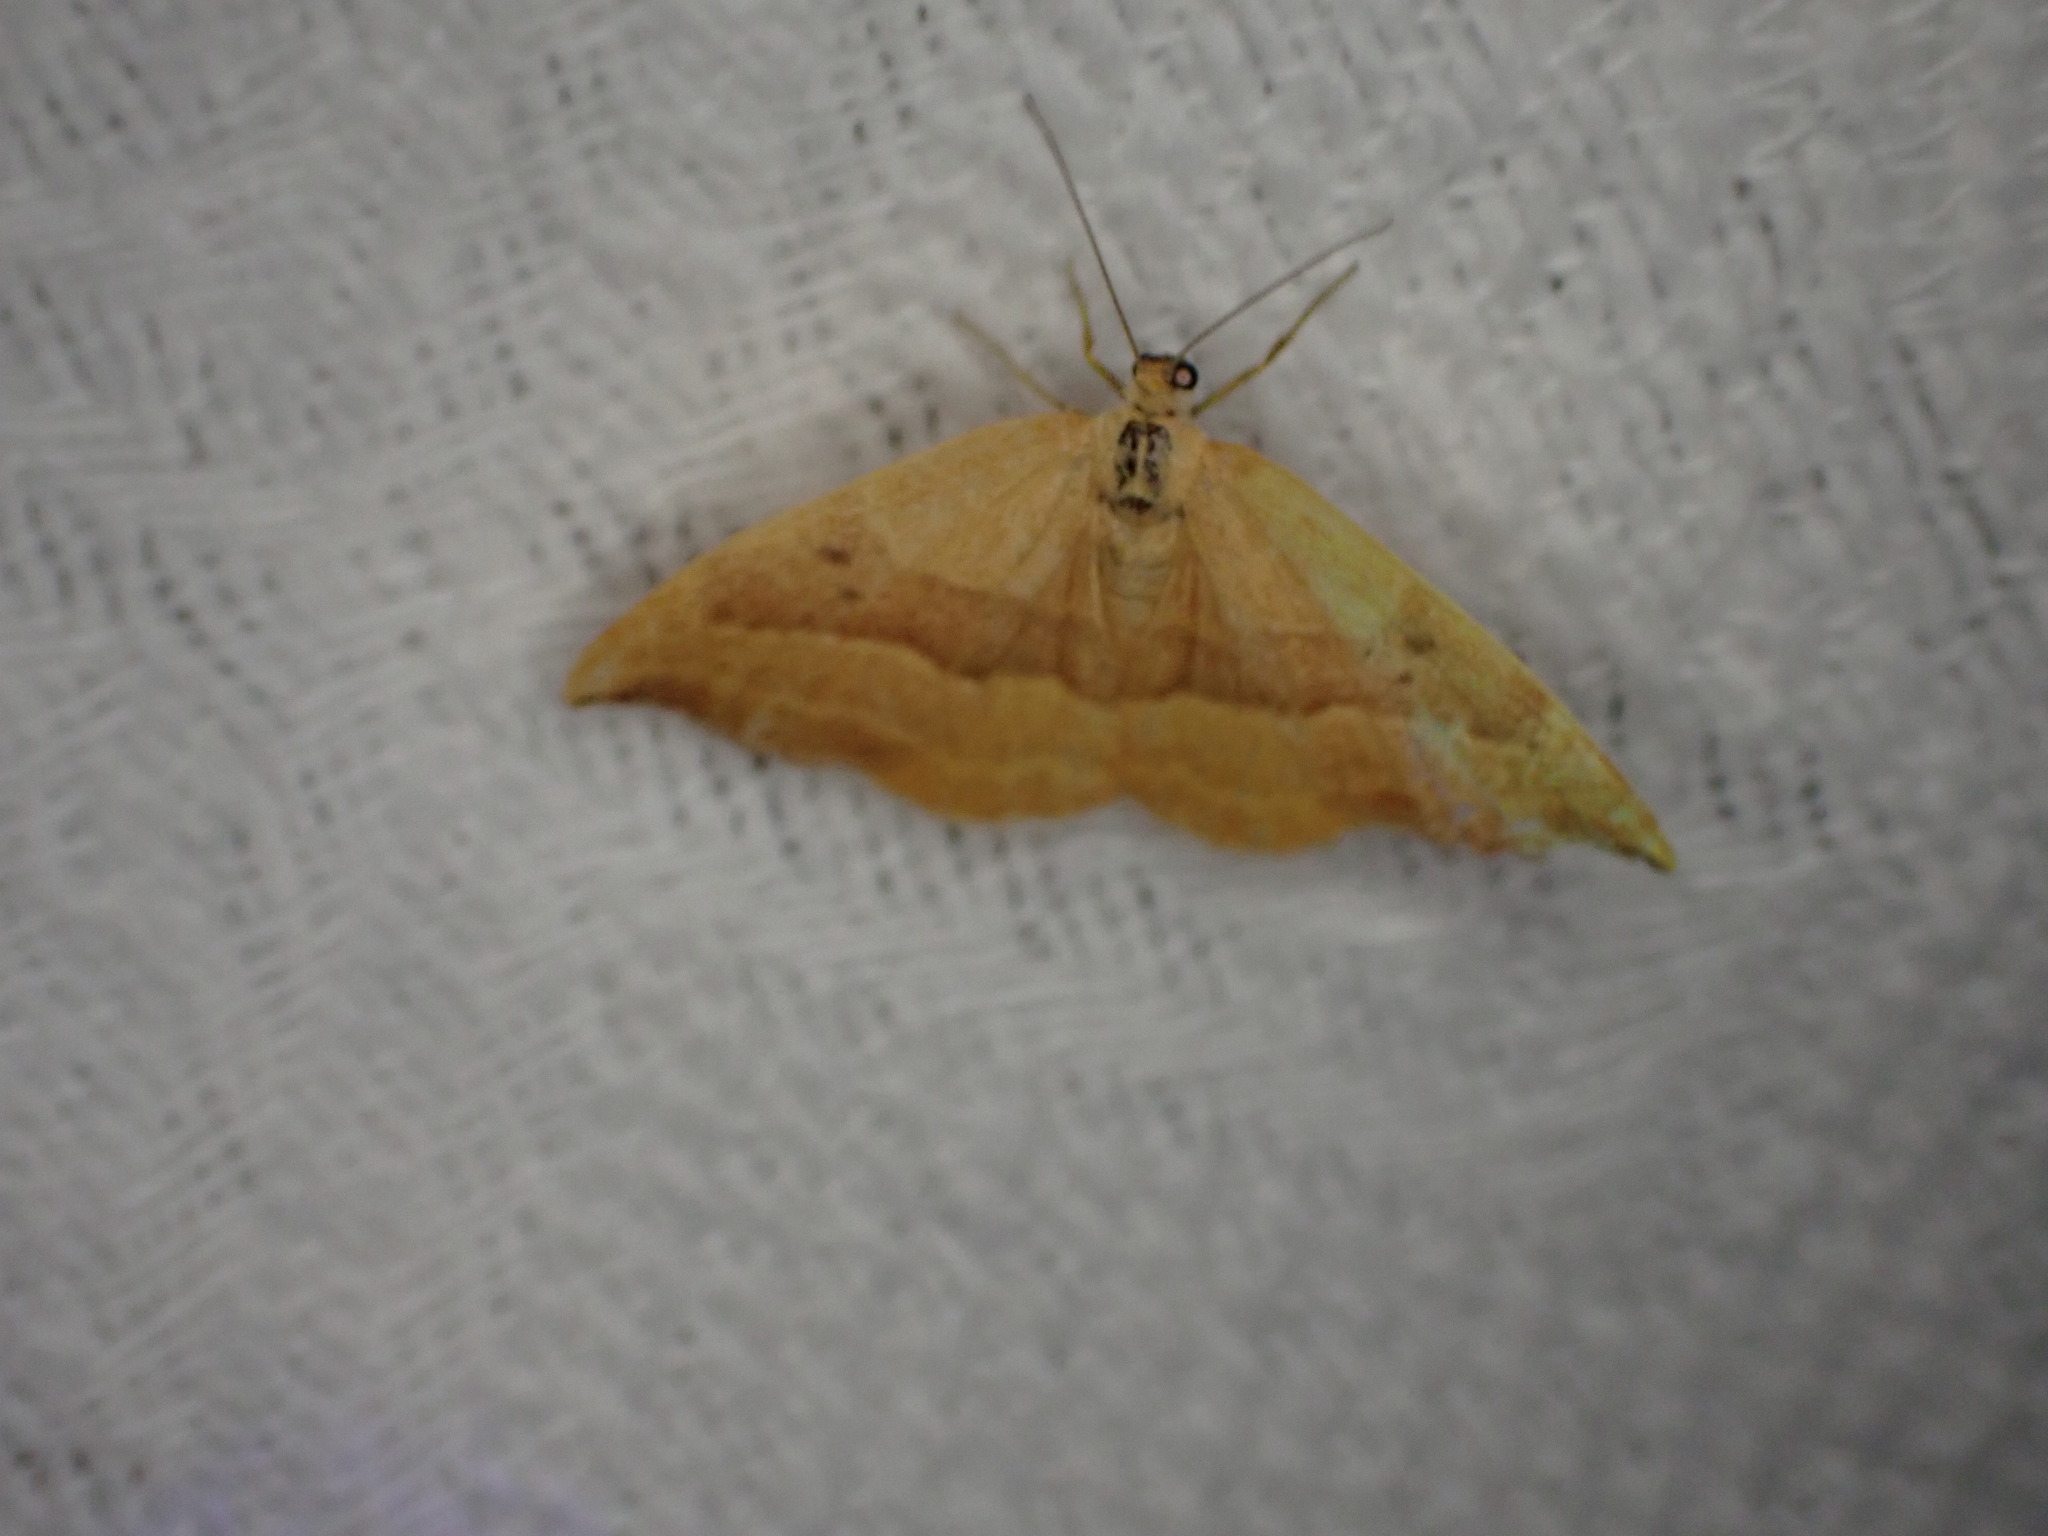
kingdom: Animalia
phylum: Arthropoda
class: Insecta
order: Lepidoptera
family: Drepanidae
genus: Watsonalla
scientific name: Watsonalla cultraria
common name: Barred hook-tip
